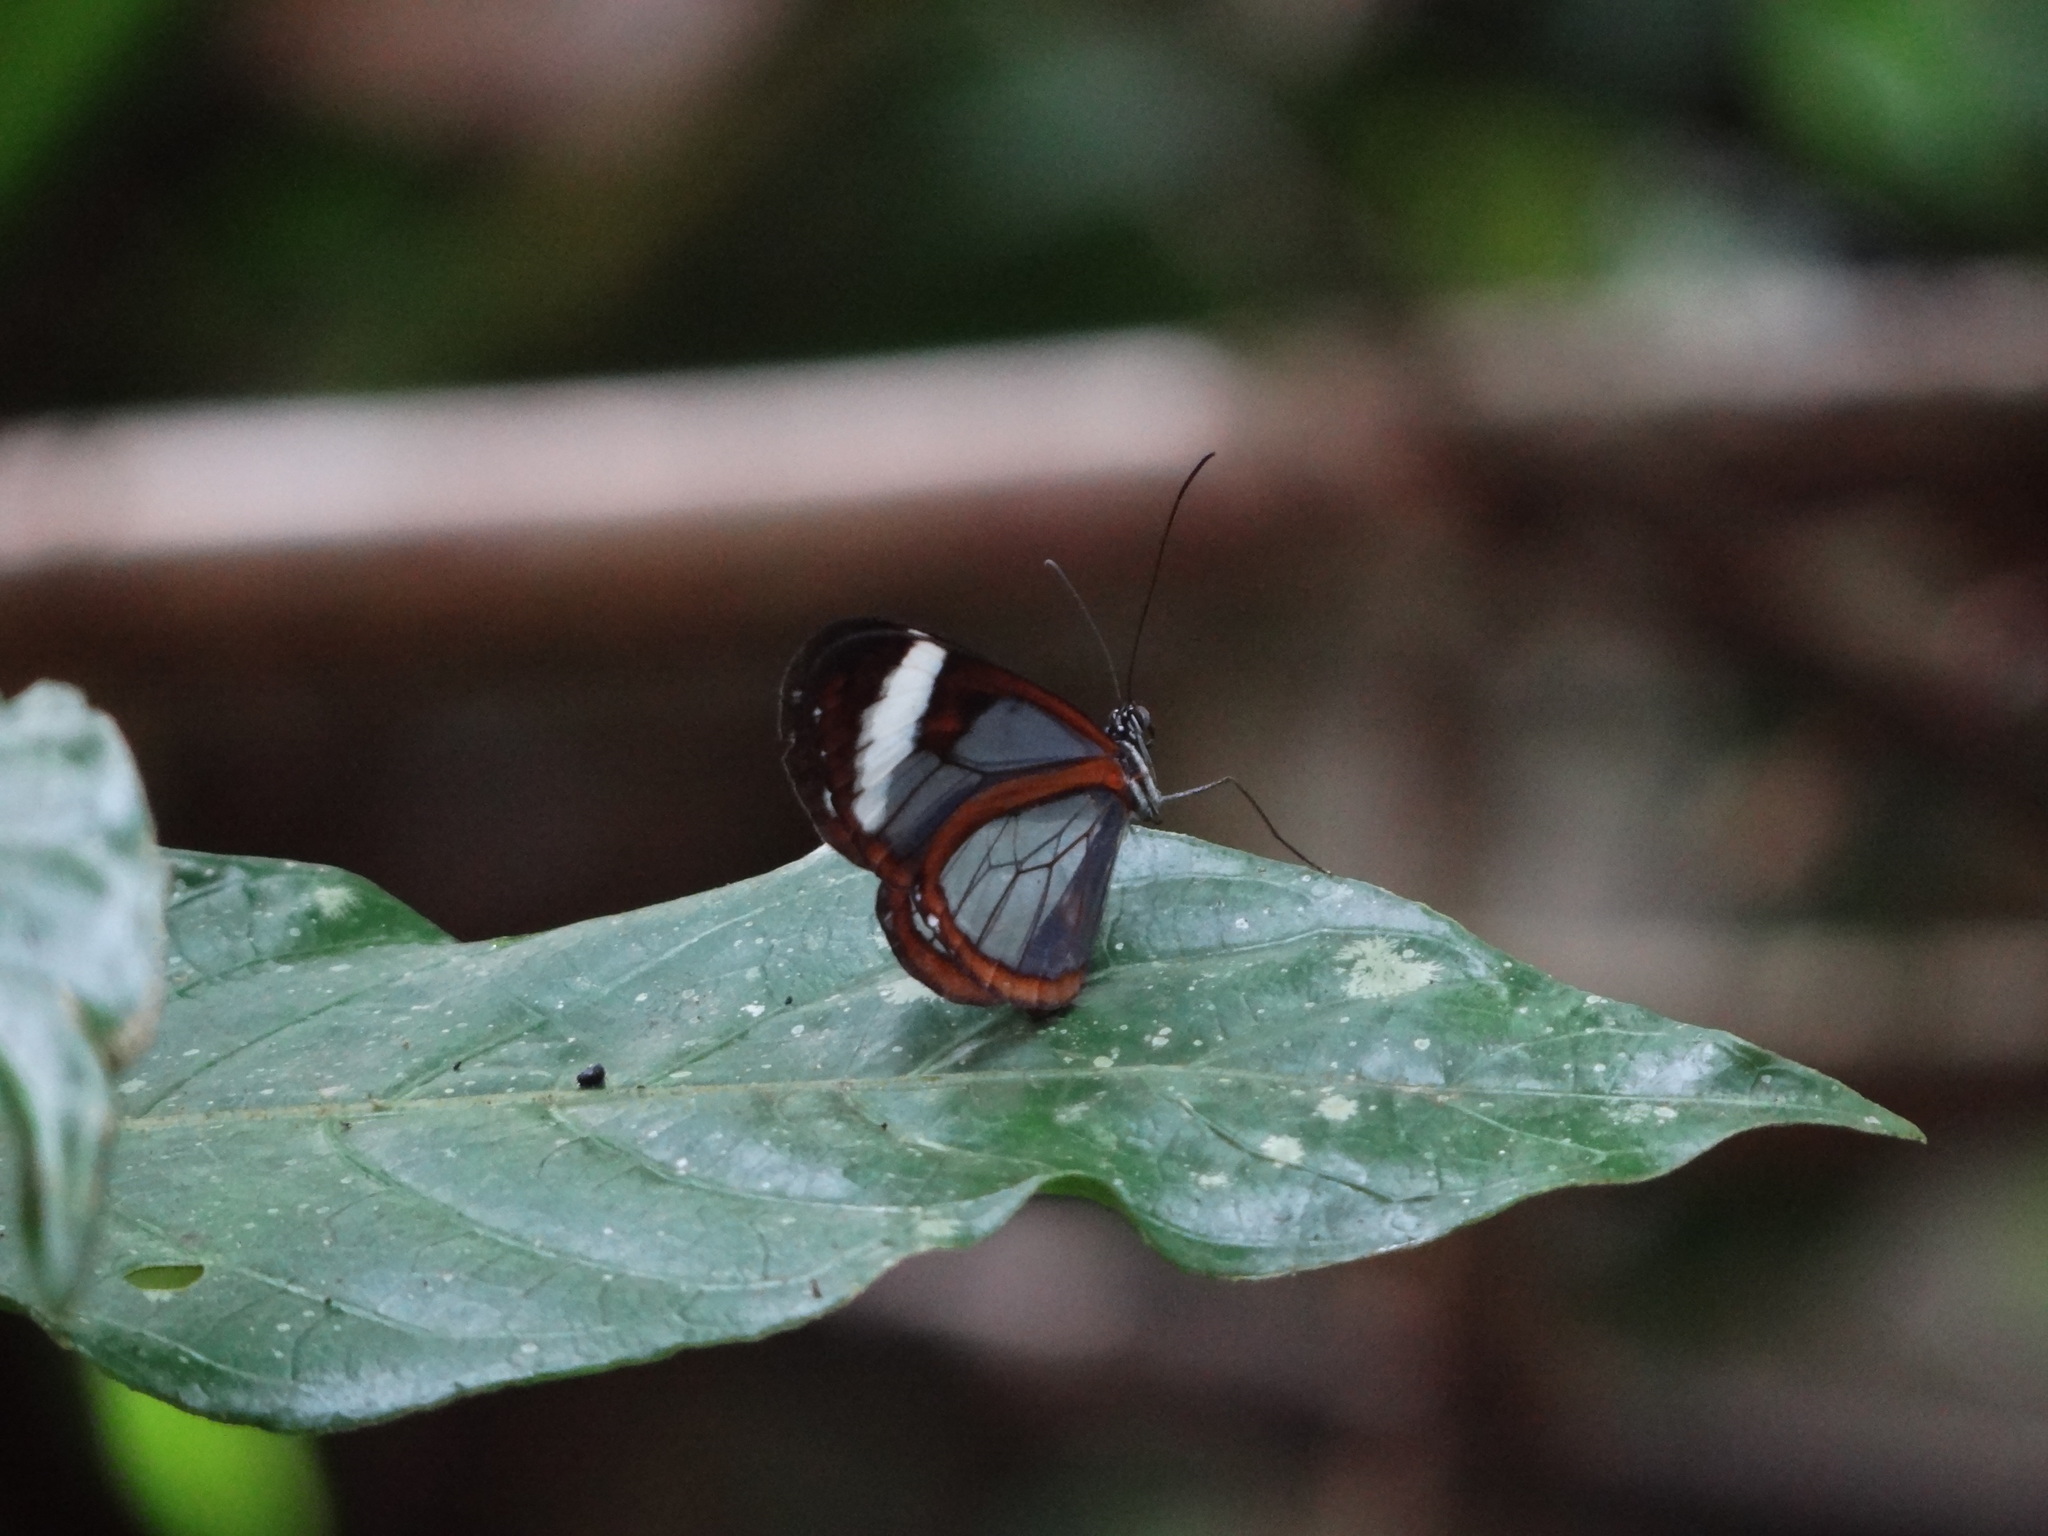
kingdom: Animalia
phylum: Arthropoda
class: Insecta
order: Lepidoptera
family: Nymphalidae
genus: Oleria
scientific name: Oleria paula
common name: Paula's clearwing
